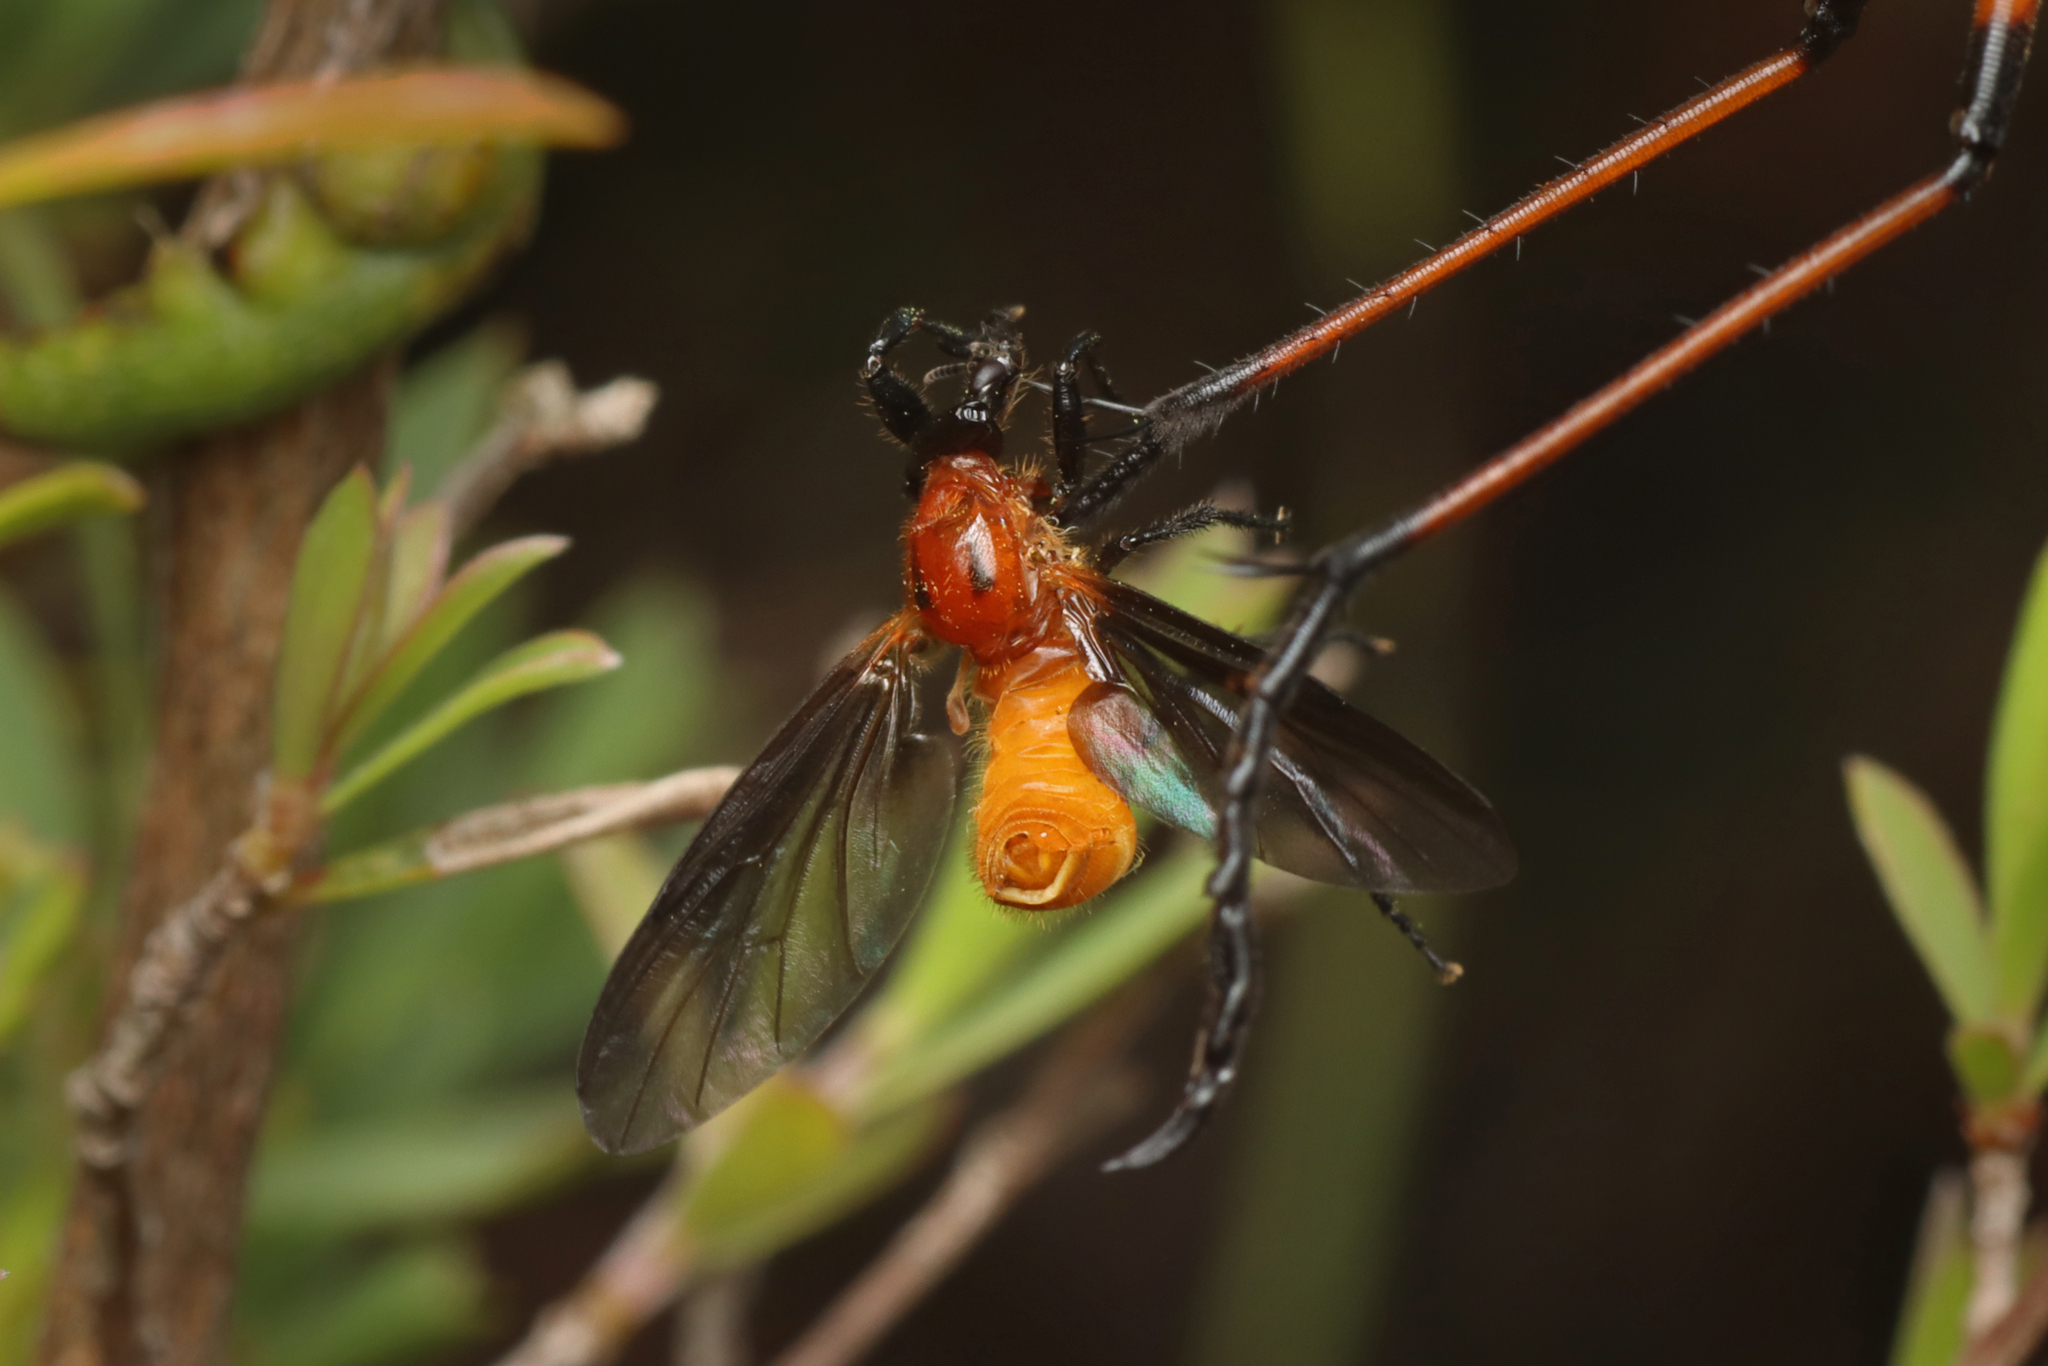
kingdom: Animalia
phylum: Arthropoda
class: Insecta
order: Diptera
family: Bibionidae
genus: Bibio
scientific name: Bibio imitator
